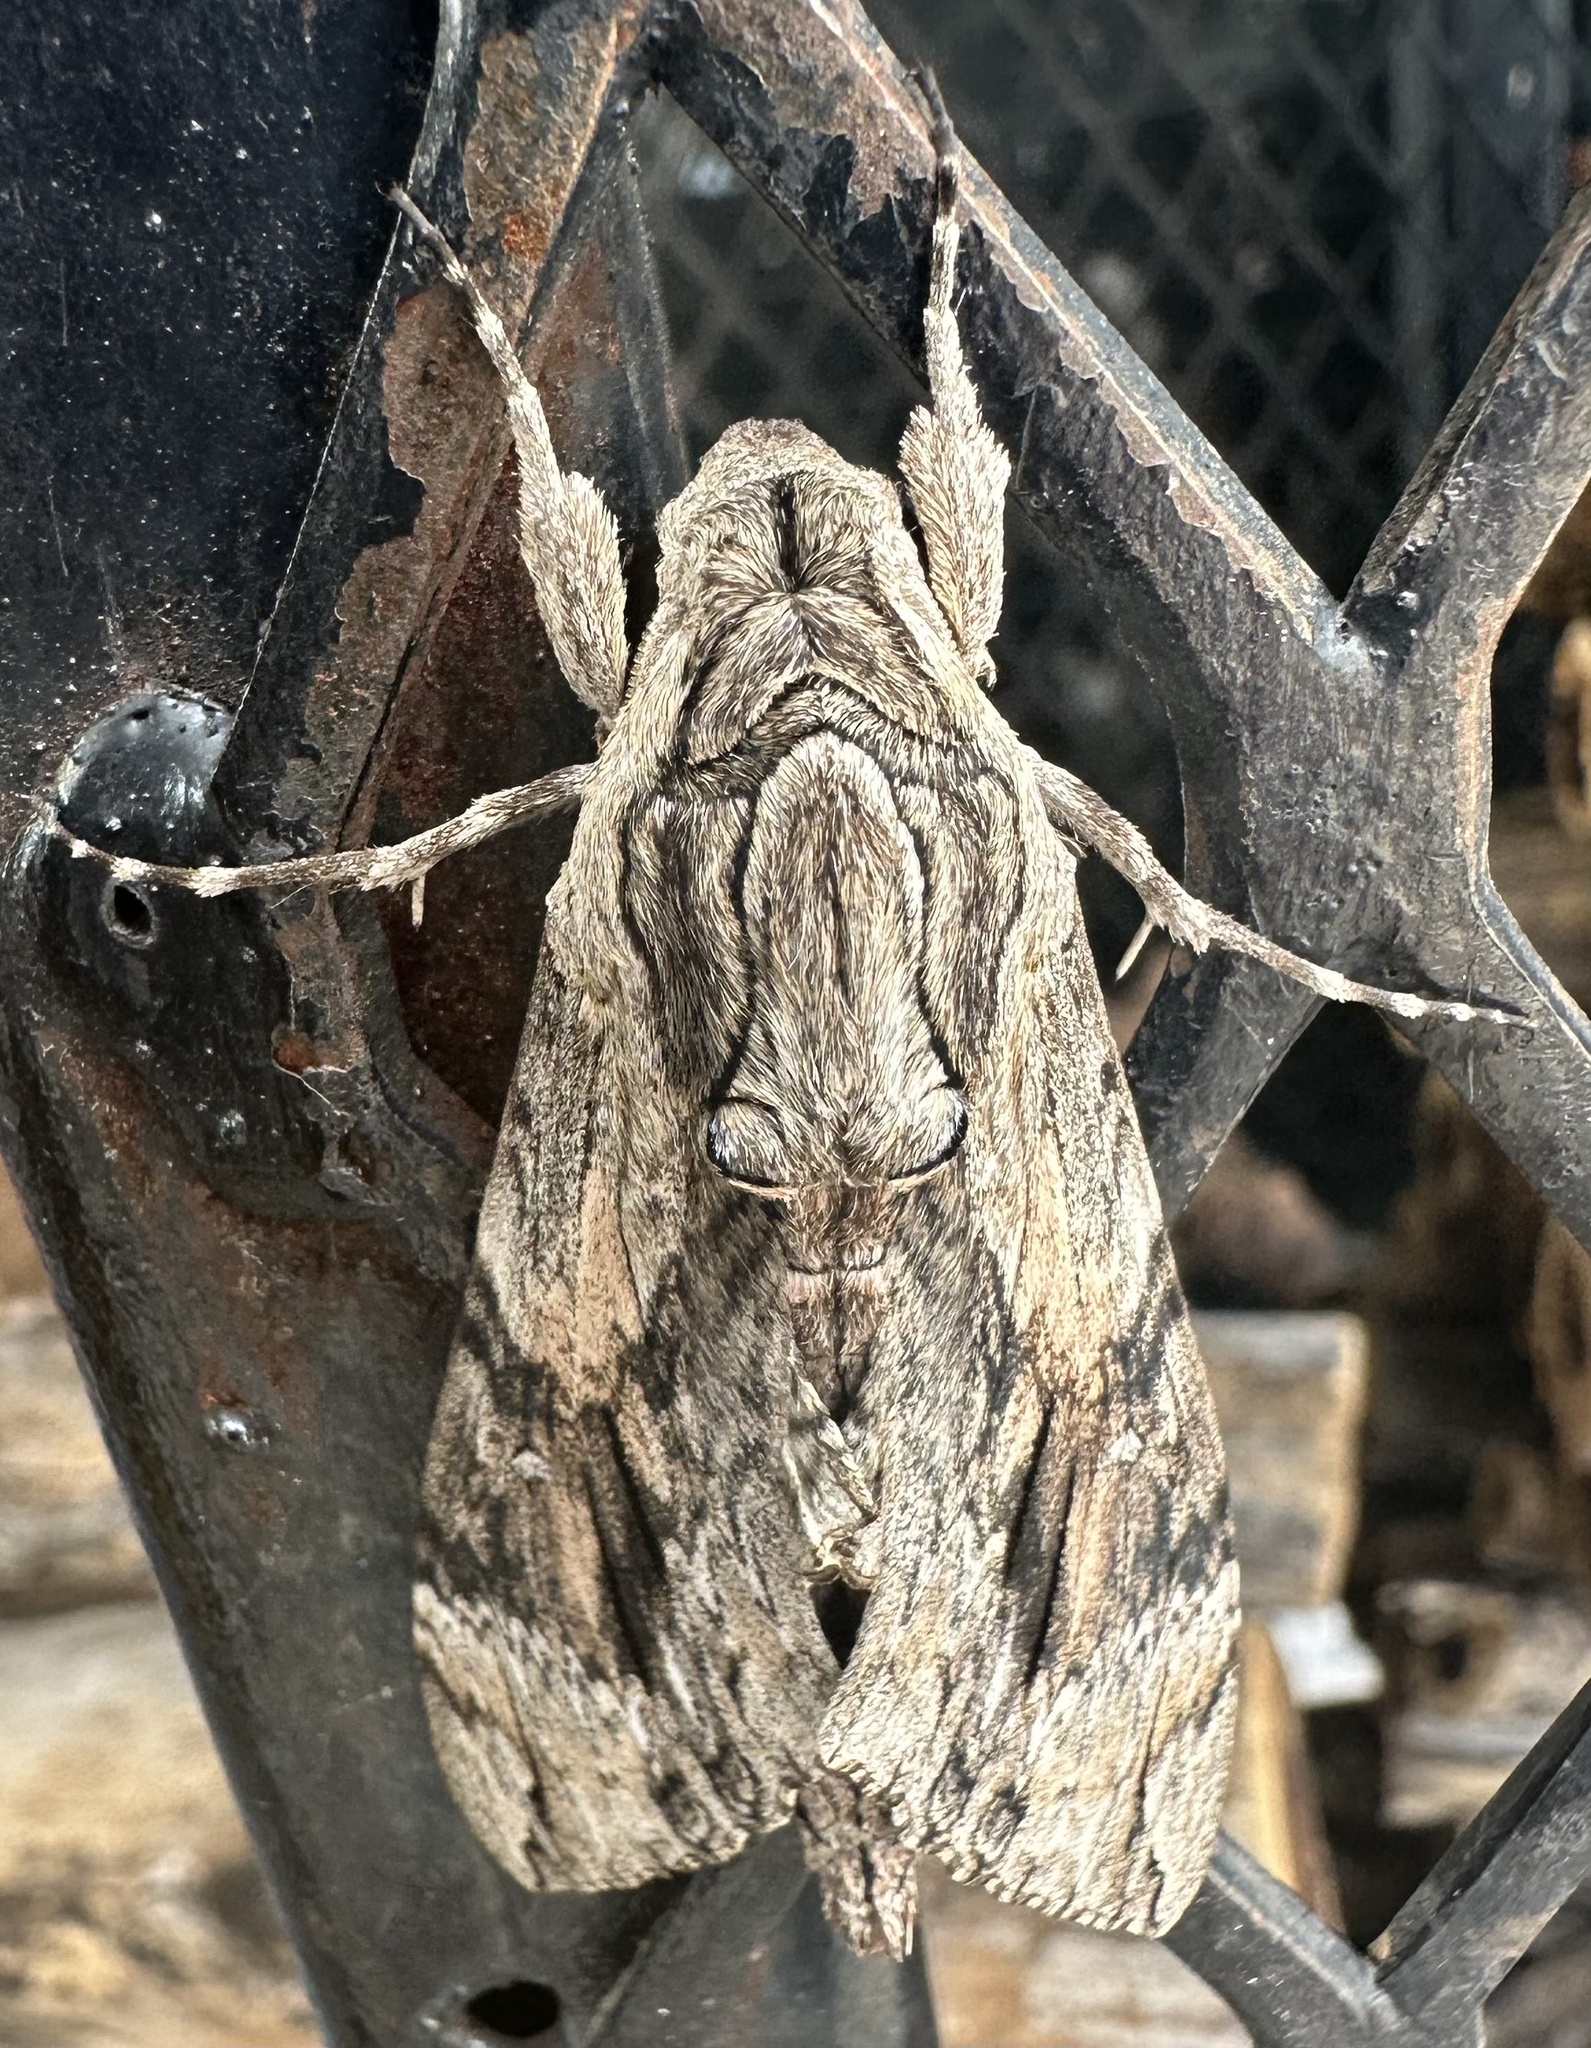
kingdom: Animalia
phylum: Arthropoda
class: Insecta
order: Lepidoptera
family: Sphingidae
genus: Agrius
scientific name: Agrius convolvuli
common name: Convolvulus hawkmoth
